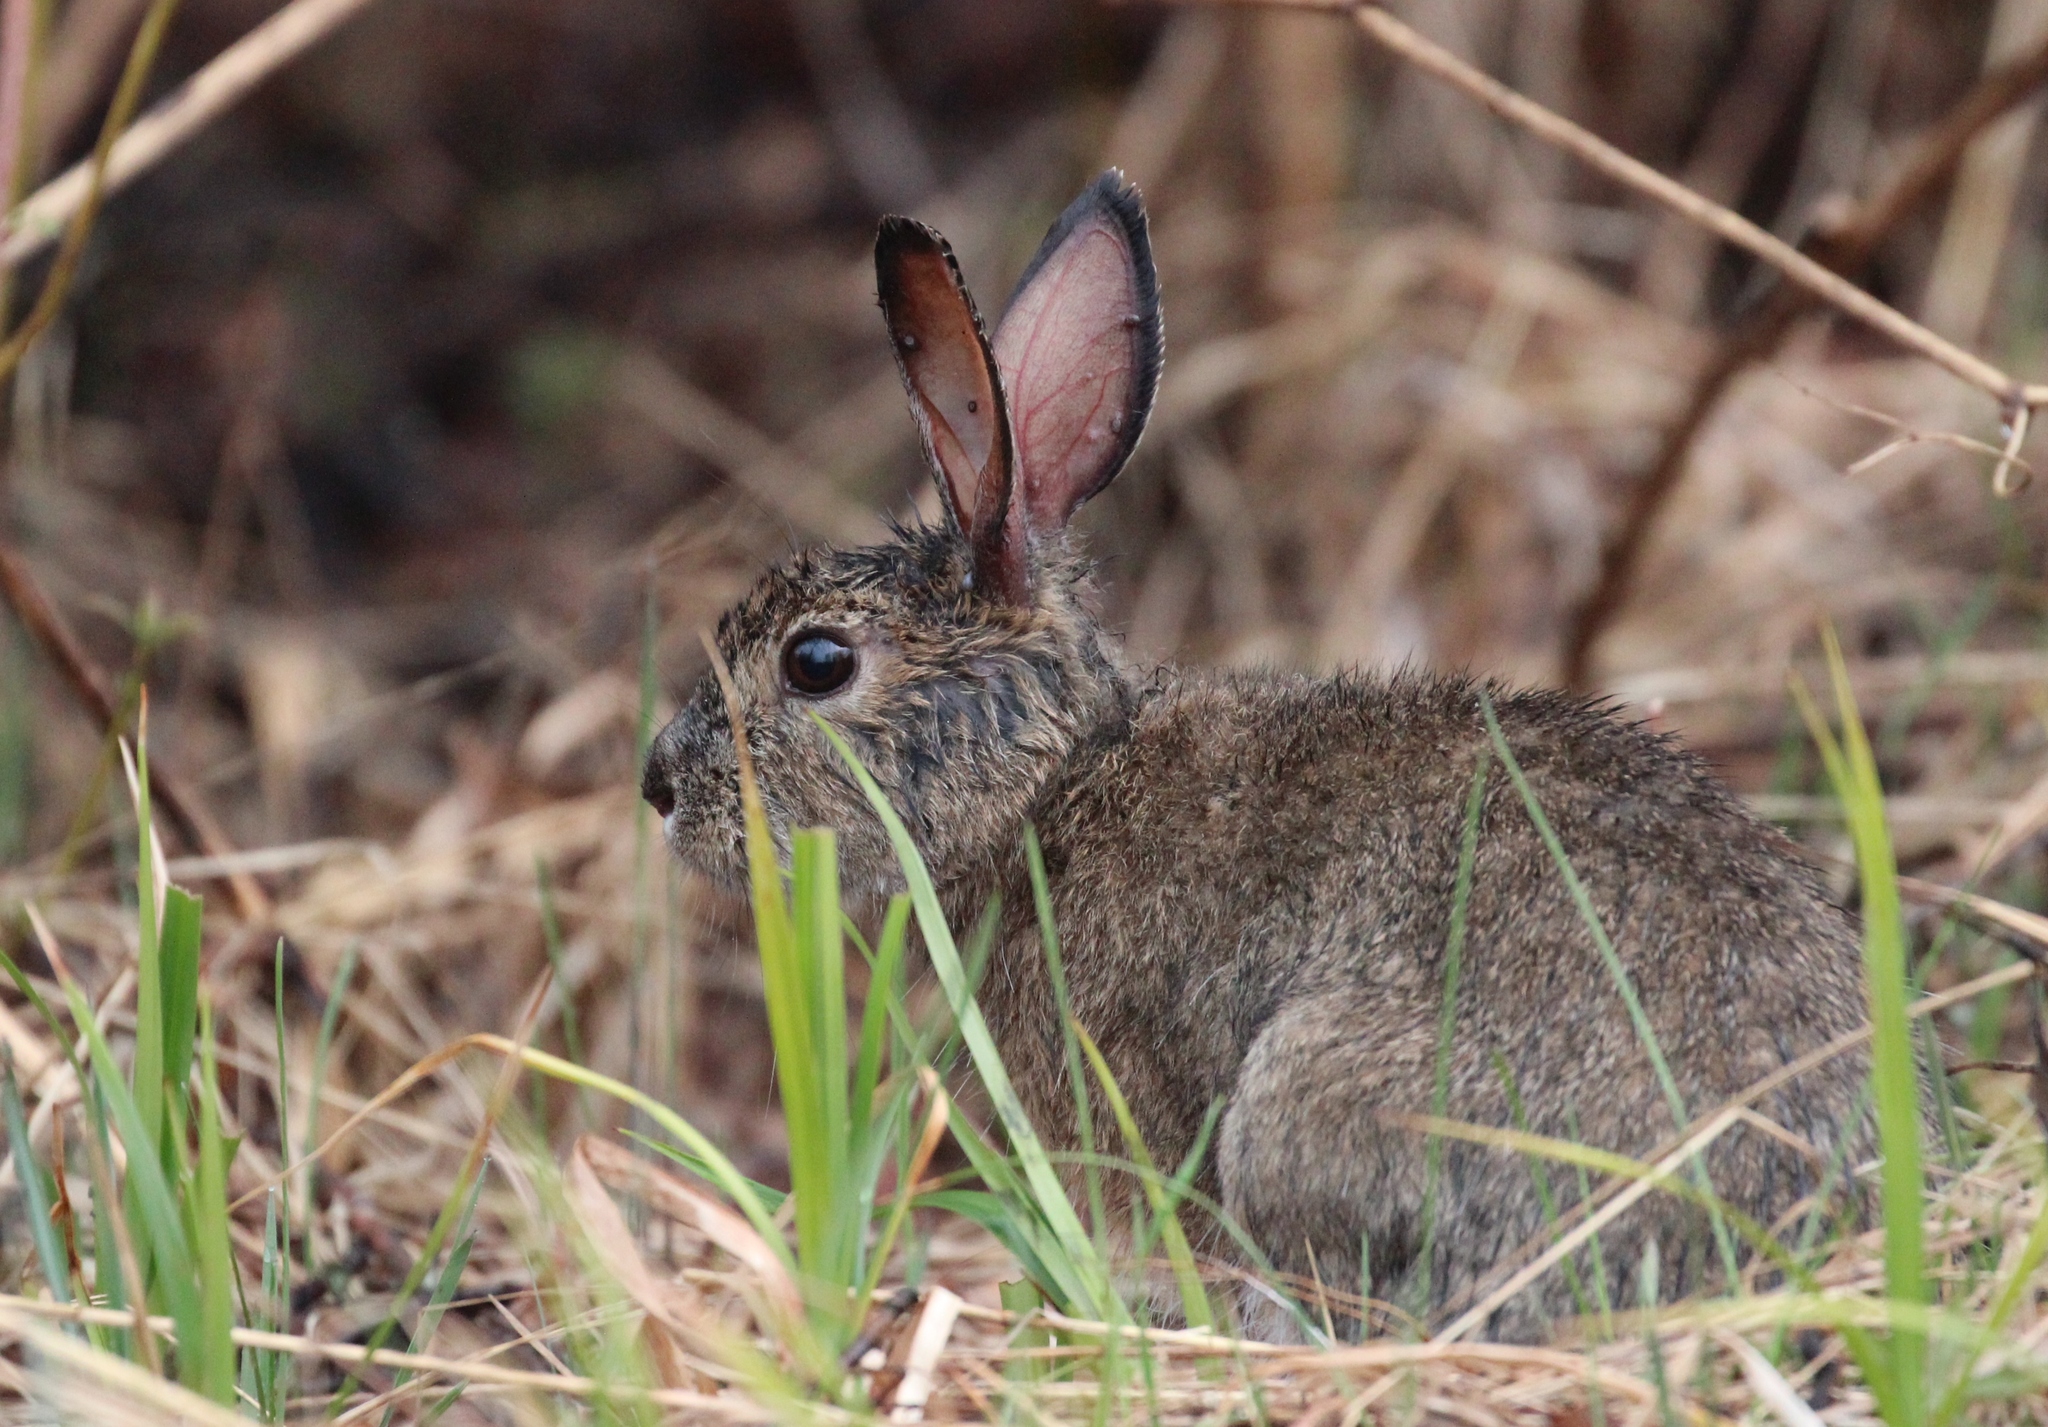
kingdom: Animalia
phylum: Chordata
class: Mammalia
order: Lagomorpha
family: Leporidae
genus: Lepus
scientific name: Lepus americanus
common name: Snowshoe hare
